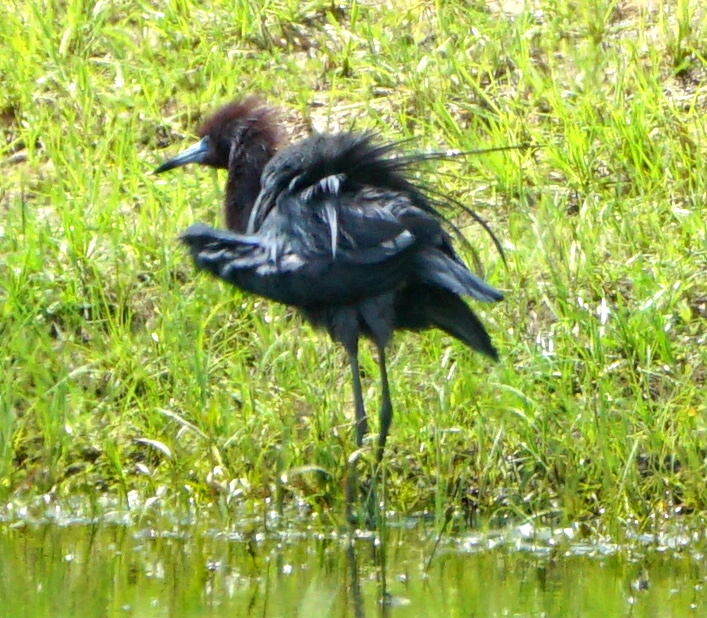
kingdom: Animalia
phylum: Chordata
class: Aves
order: Pelecaniformes
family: Ardeidae
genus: Egretta
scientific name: Egretta caerulea
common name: Little blue heron
